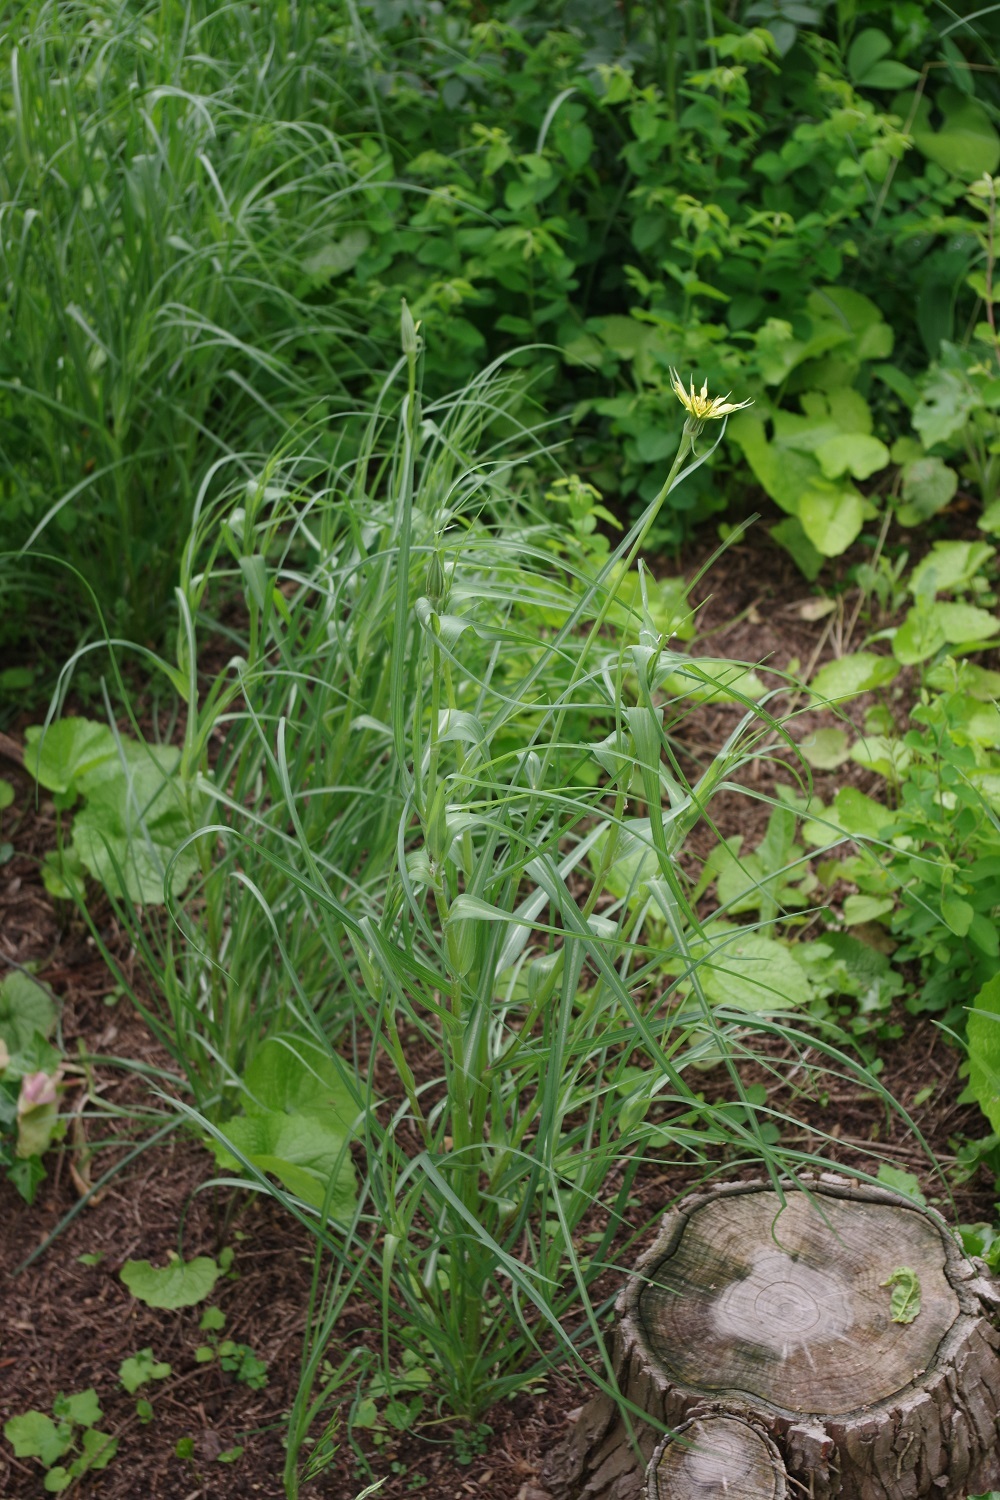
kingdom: Plantae
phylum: Tracheophyta
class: Magnoliopsida
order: Asterales
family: Asteraceae
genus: Tragopogon
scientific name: Tragopogon dubius
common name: Yellow salsify
